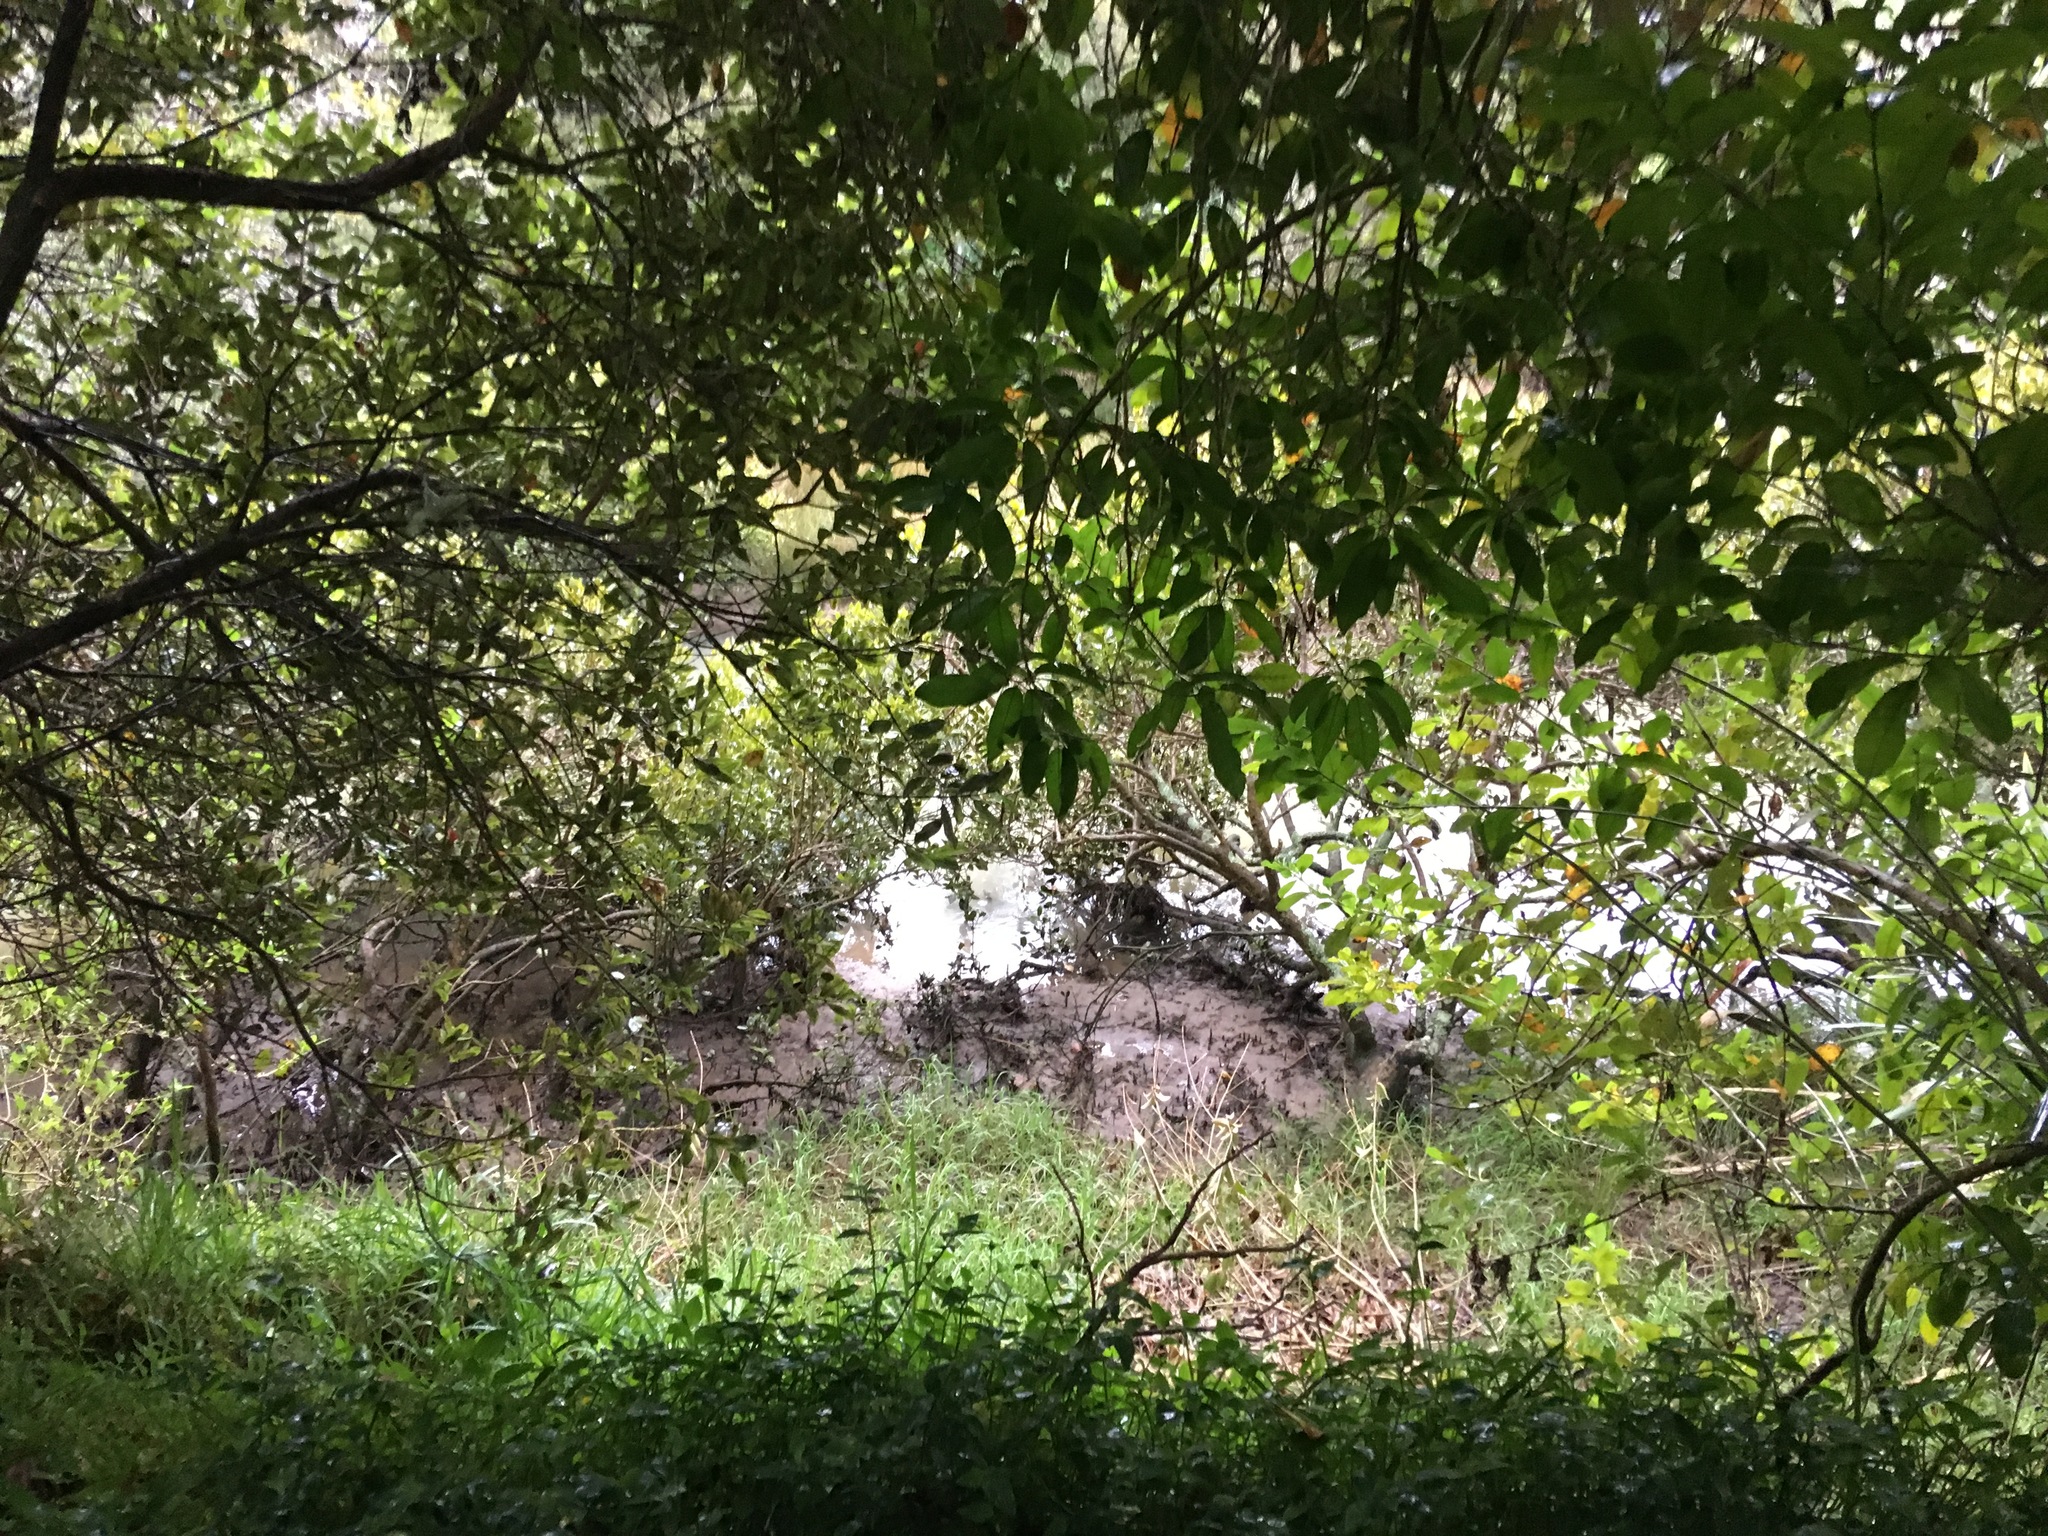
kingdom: Plantae
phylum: Tracheophyta
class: Magnoliopsida
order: Malpighiales
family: Violaceae
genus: Melicytus
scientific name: Melicytus ramiflorus
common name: Mahoe
